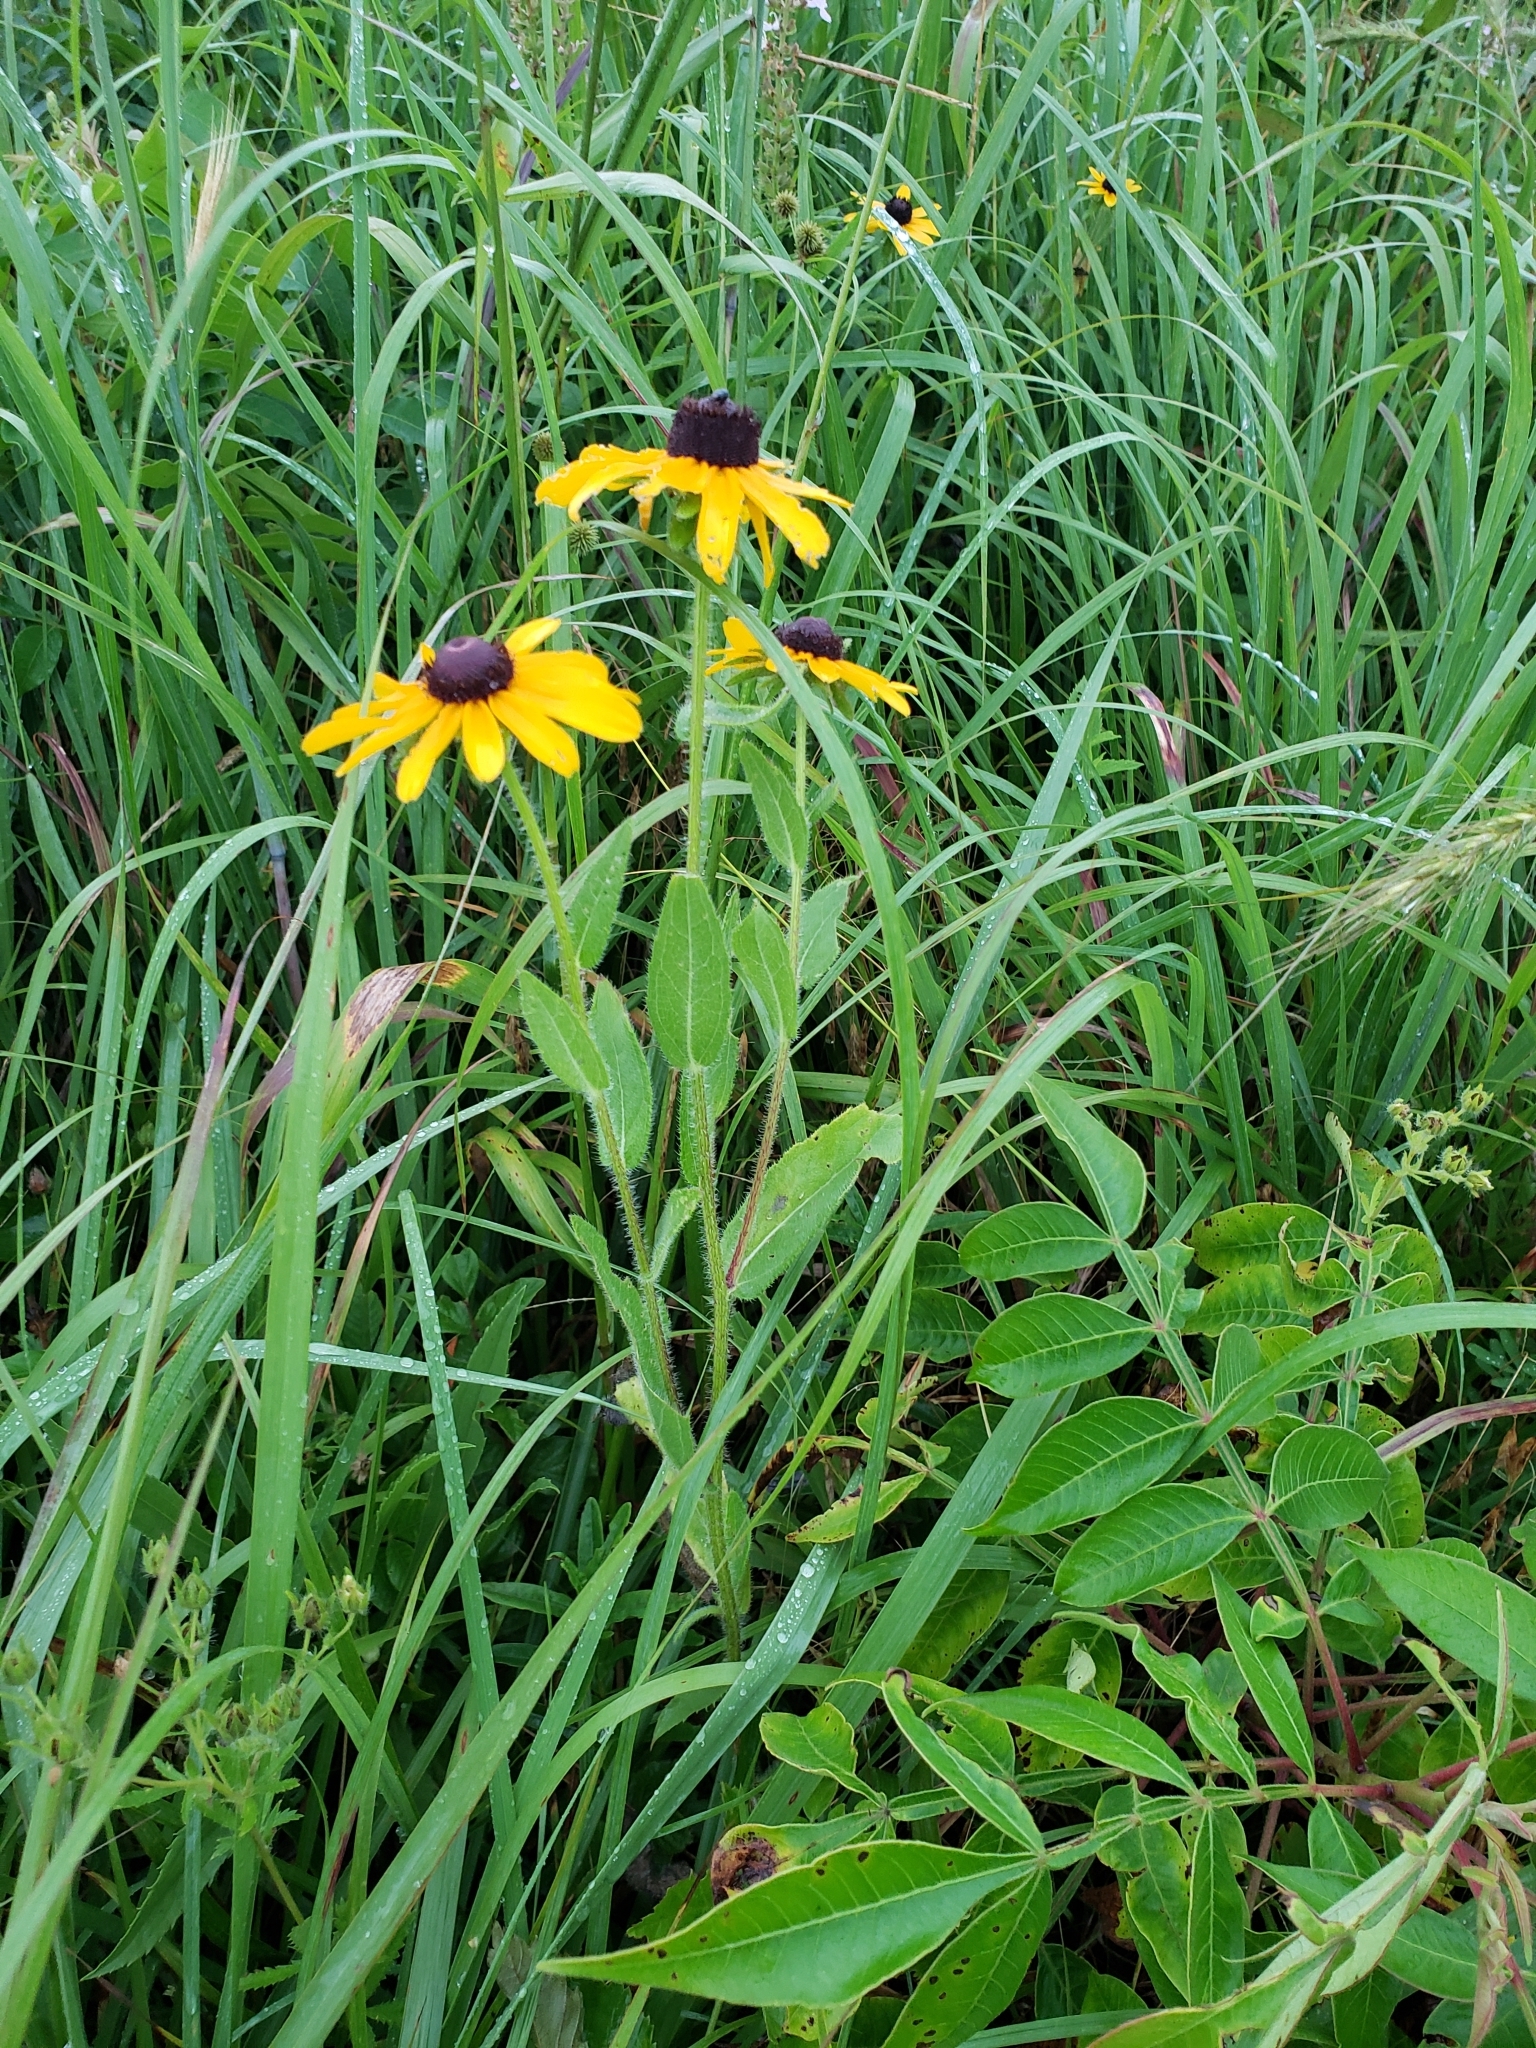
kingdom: Plantae
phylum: Tracheophyta
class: Magnoliopsida
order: Asterales
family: Asteraceae
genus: Rudbeckia
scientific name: Rudbeckia hirta
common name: Black-eyed-susan
